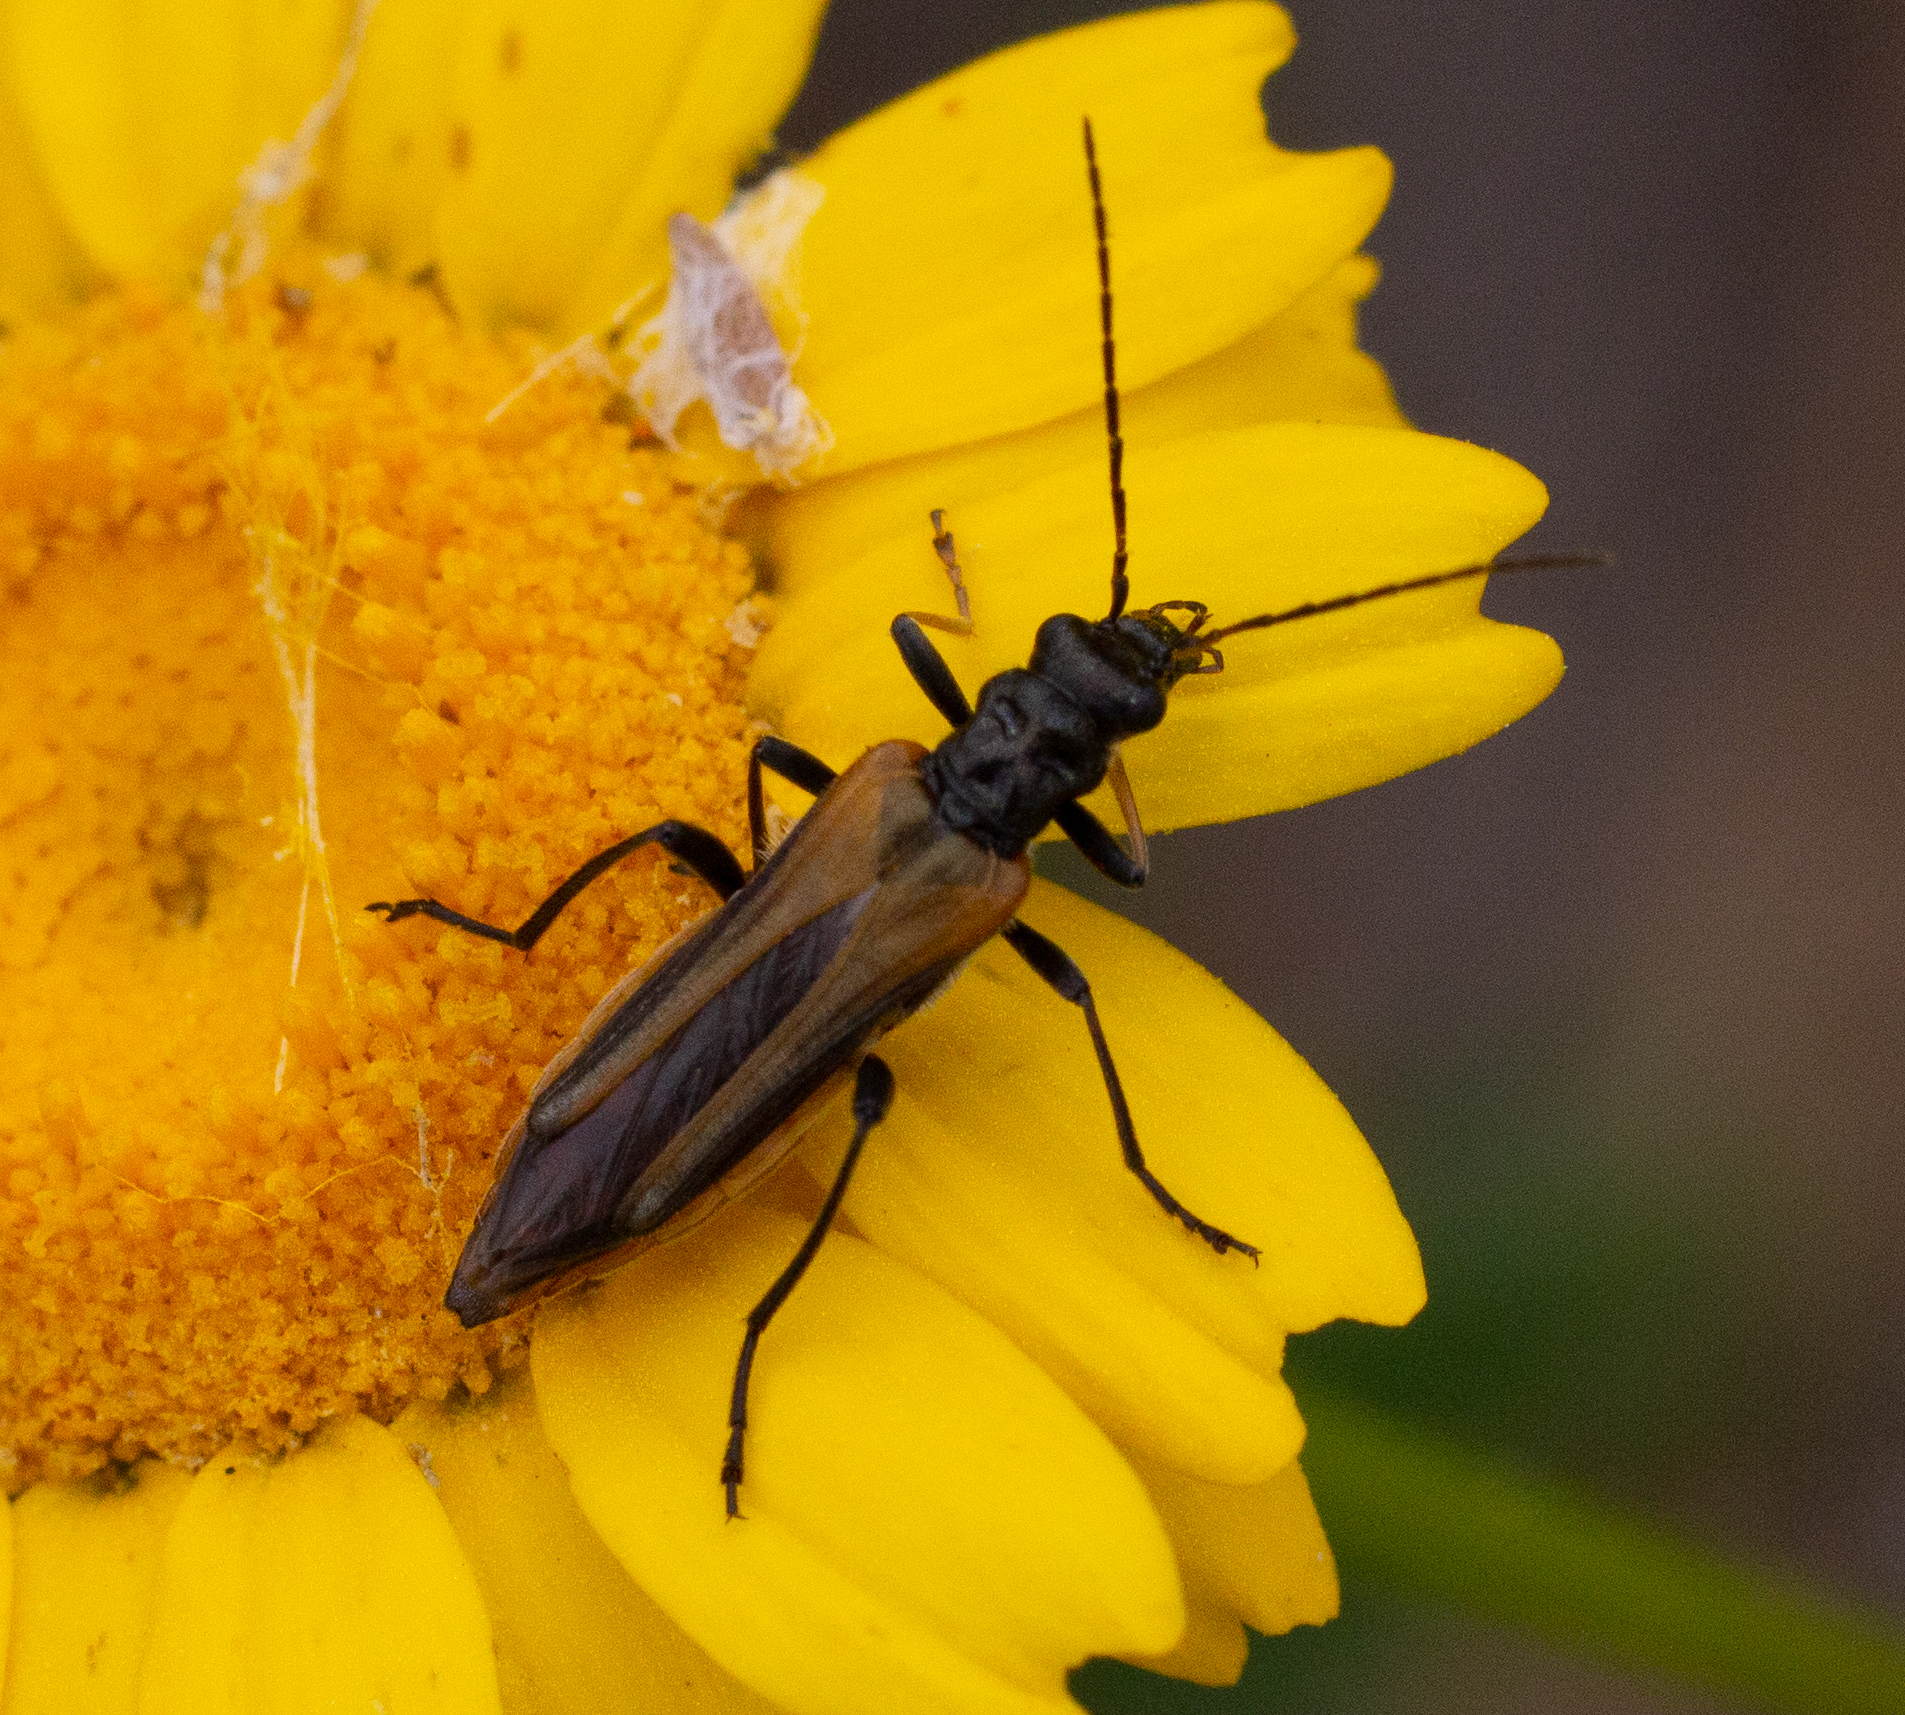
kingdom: Animalia
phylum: Arthropoda
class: Insecta
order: Coleoptera
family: Oedemeridae
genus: Oedemera
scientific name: Oedemera simplex
